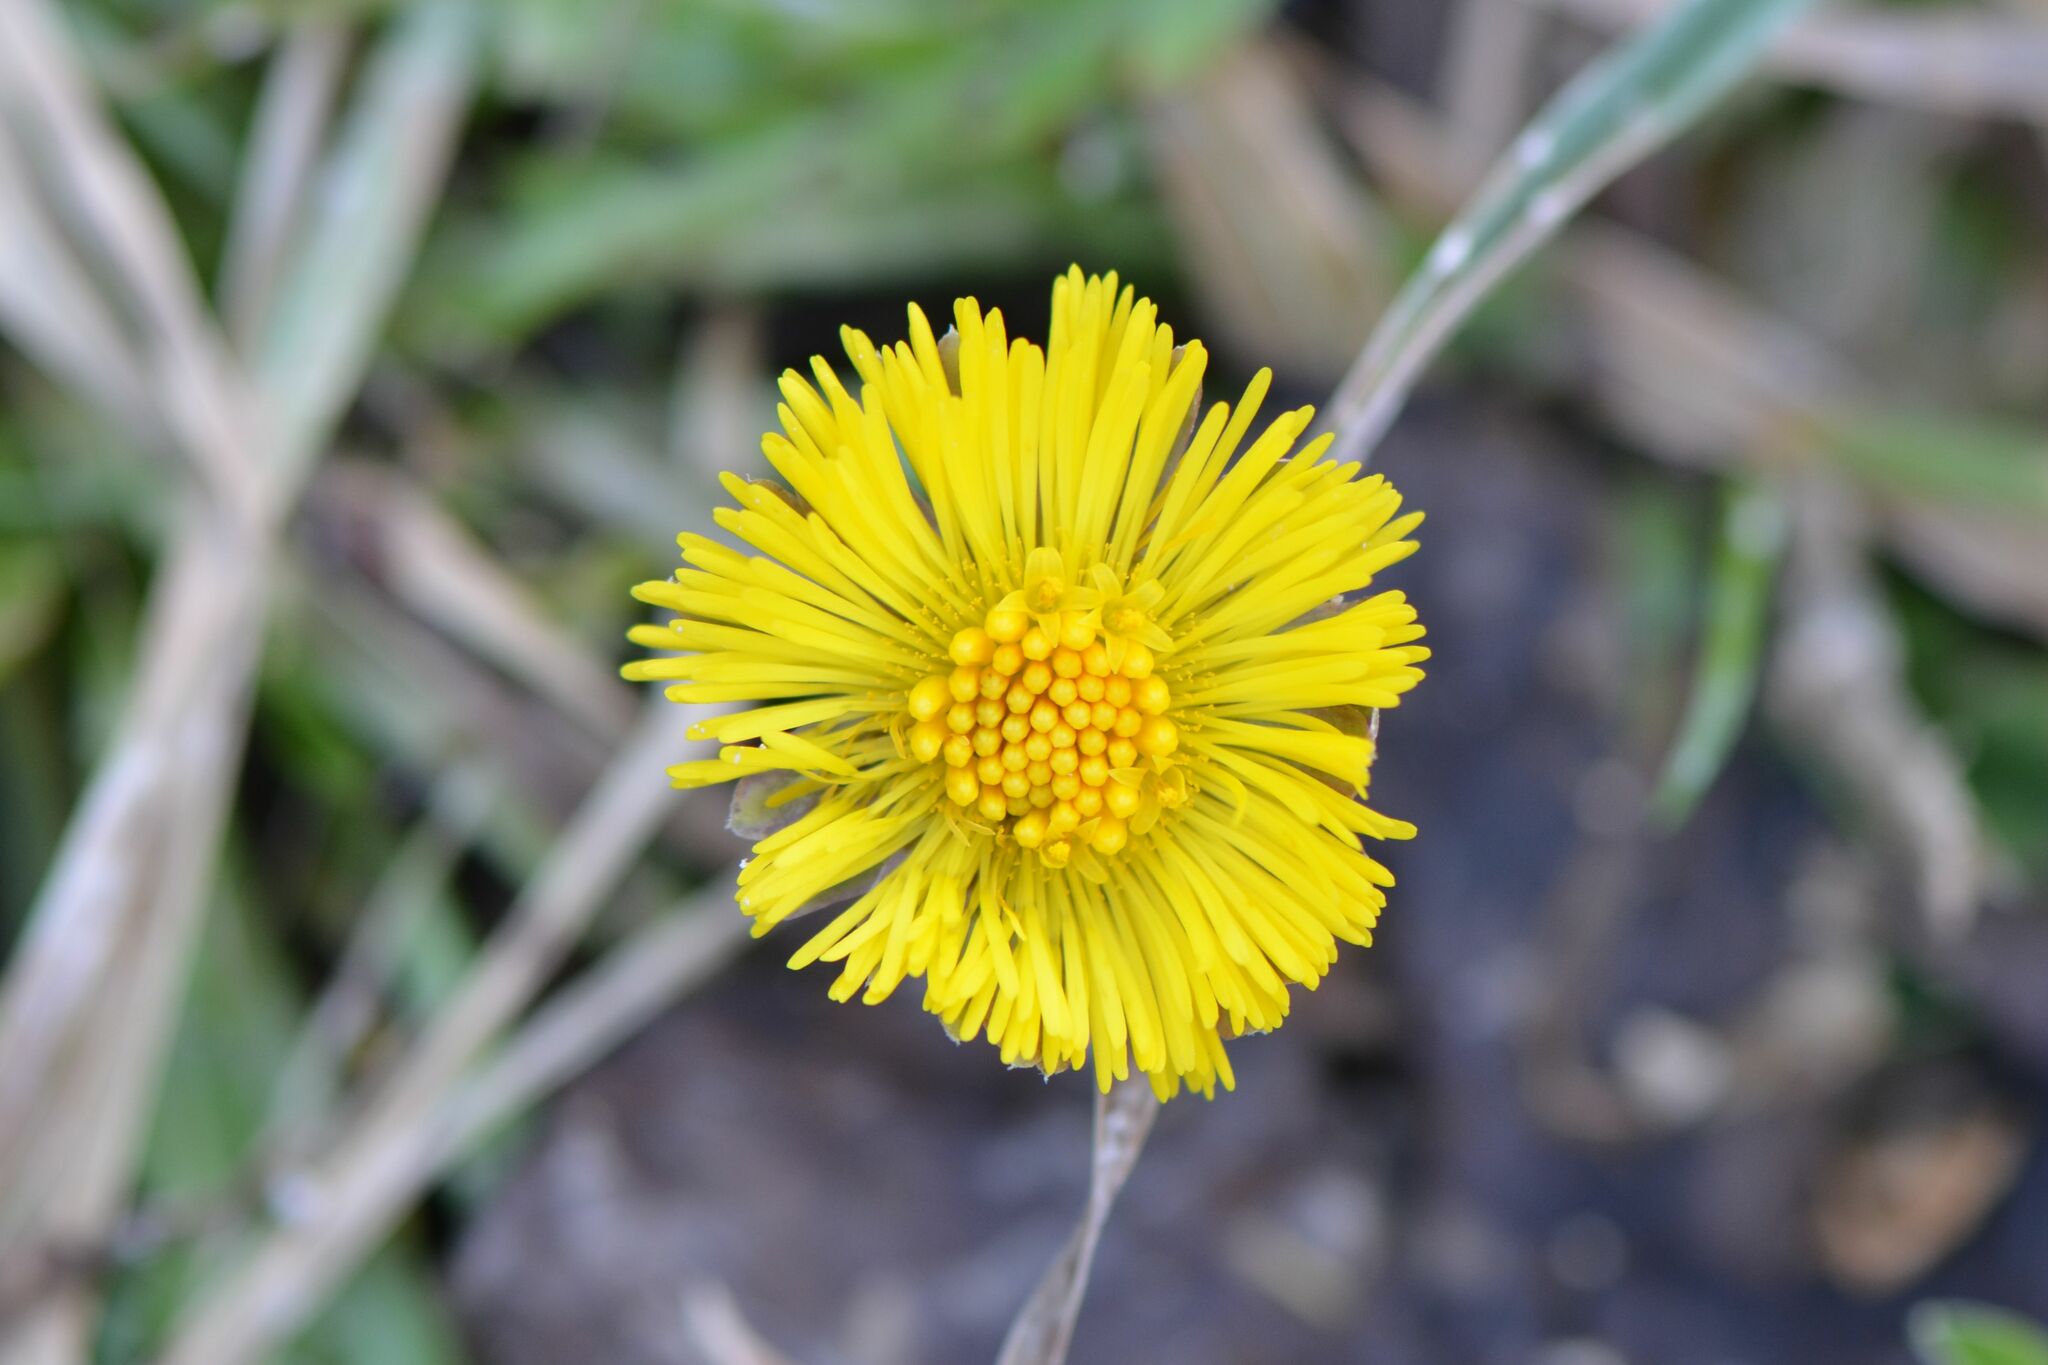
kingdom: Plantae
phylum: Tracheophyta
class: Magnoliopsida
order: Asterales
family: Asteraceae
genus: Tussilago
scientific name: Tussilago farfara
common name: Coltsfoot
